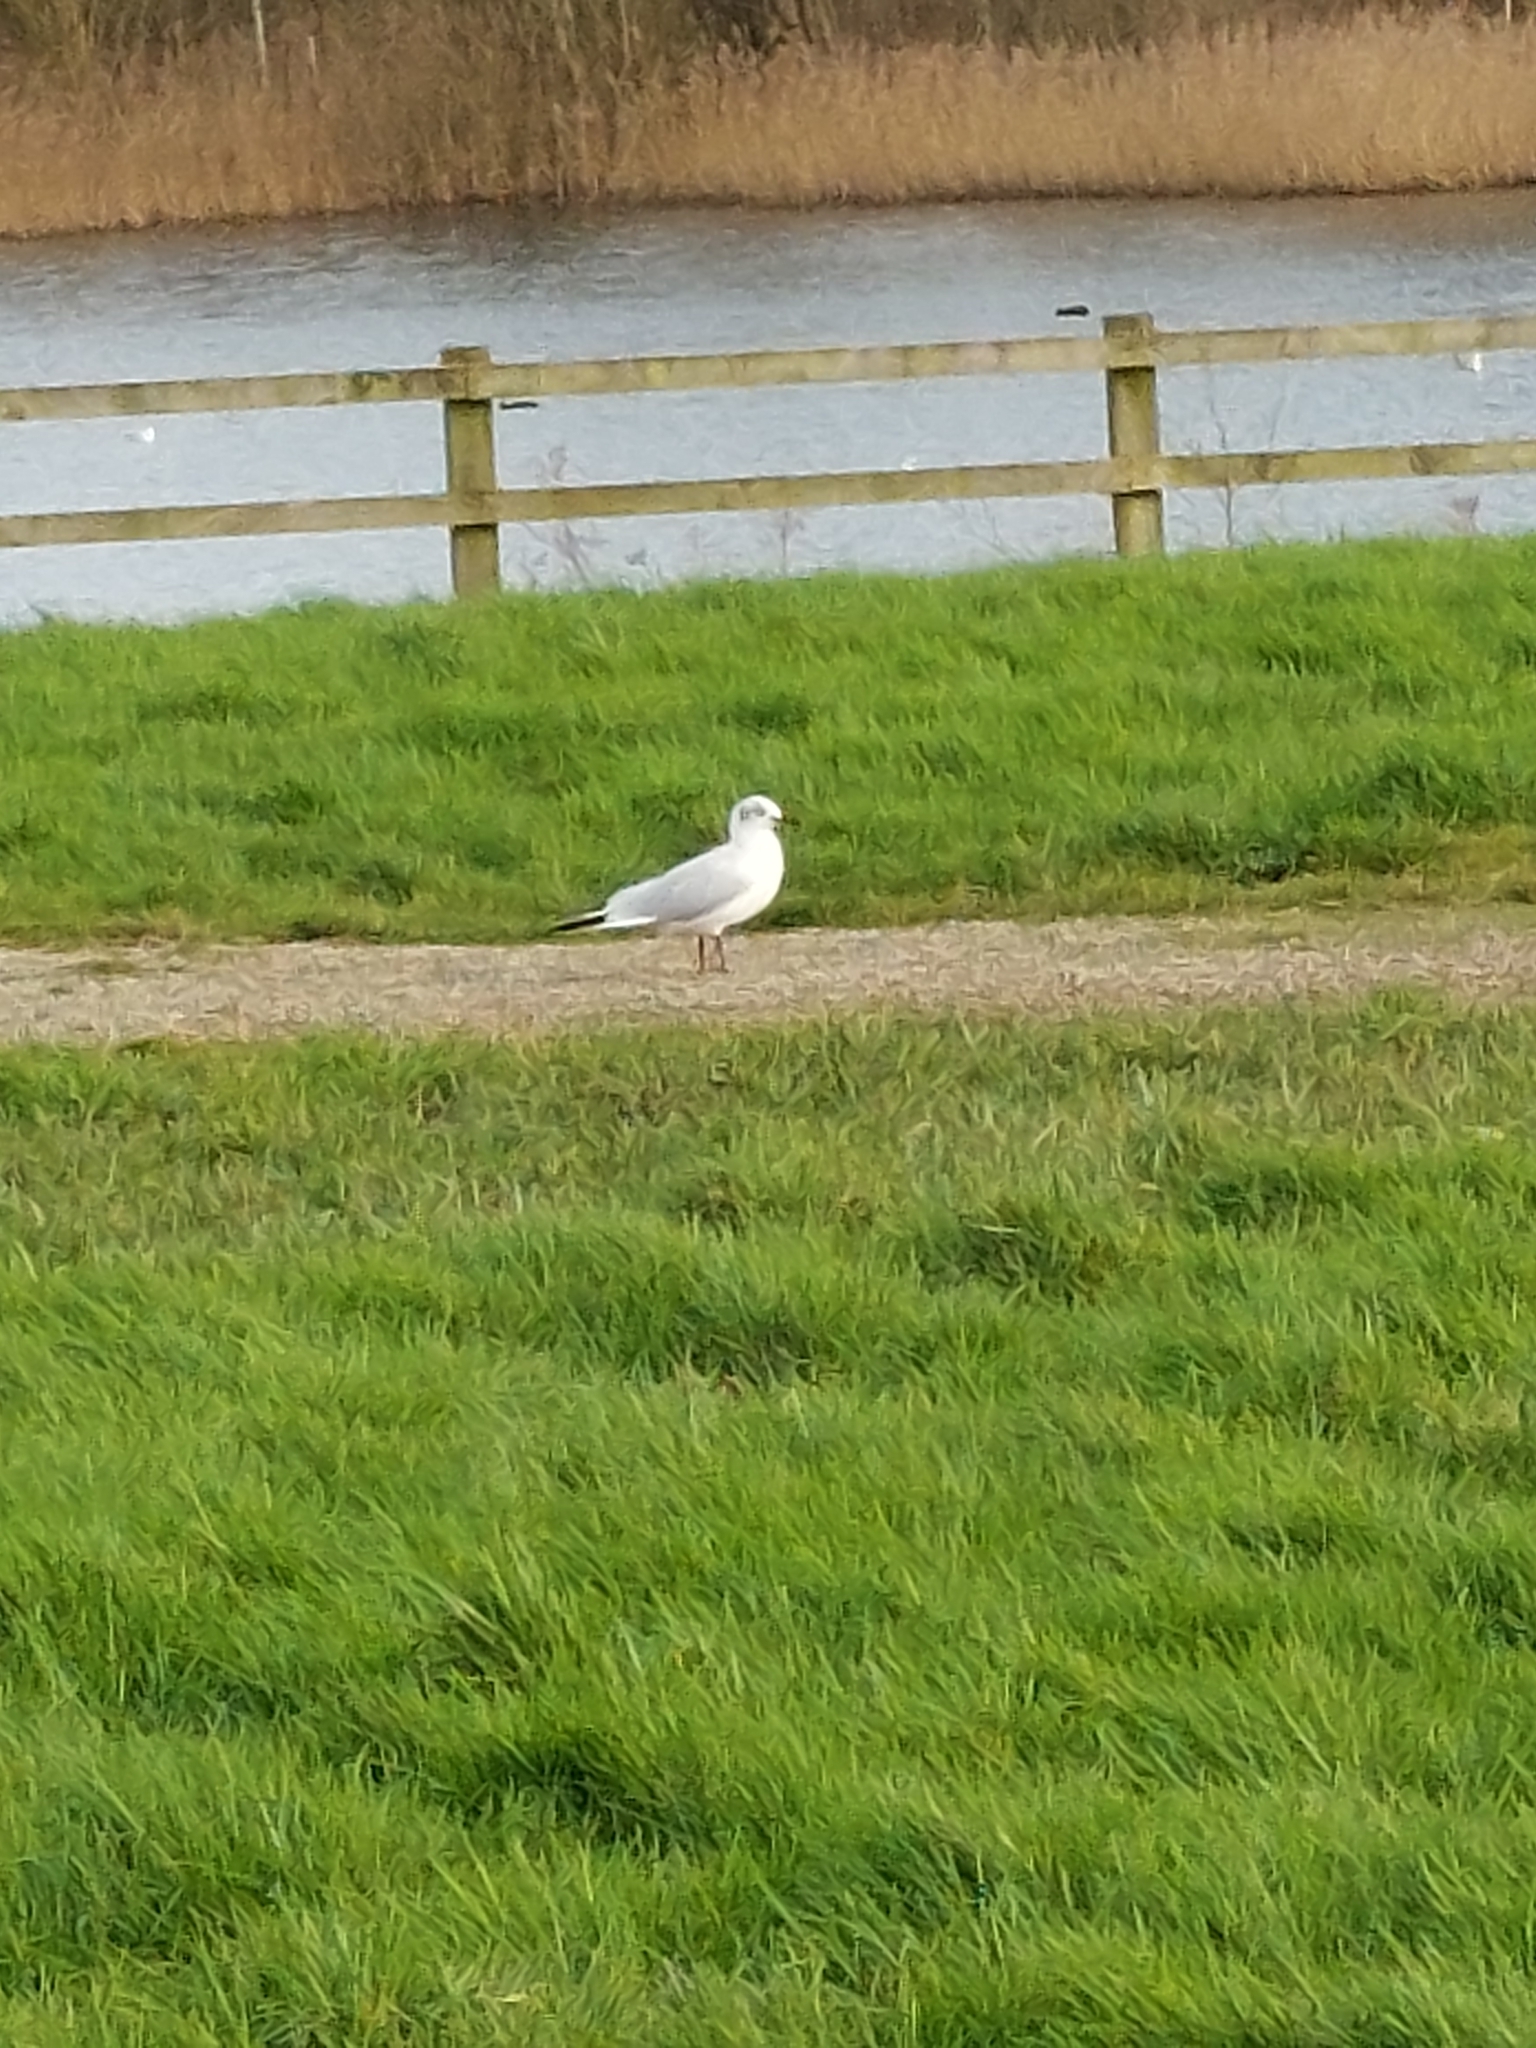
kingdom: Animalia
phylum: Chordata
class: Aves
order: Charadriiformes
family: Laridae
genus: Chroicocephalus
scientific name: Chroicocephalus ridibundus
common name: Black-headed gull
